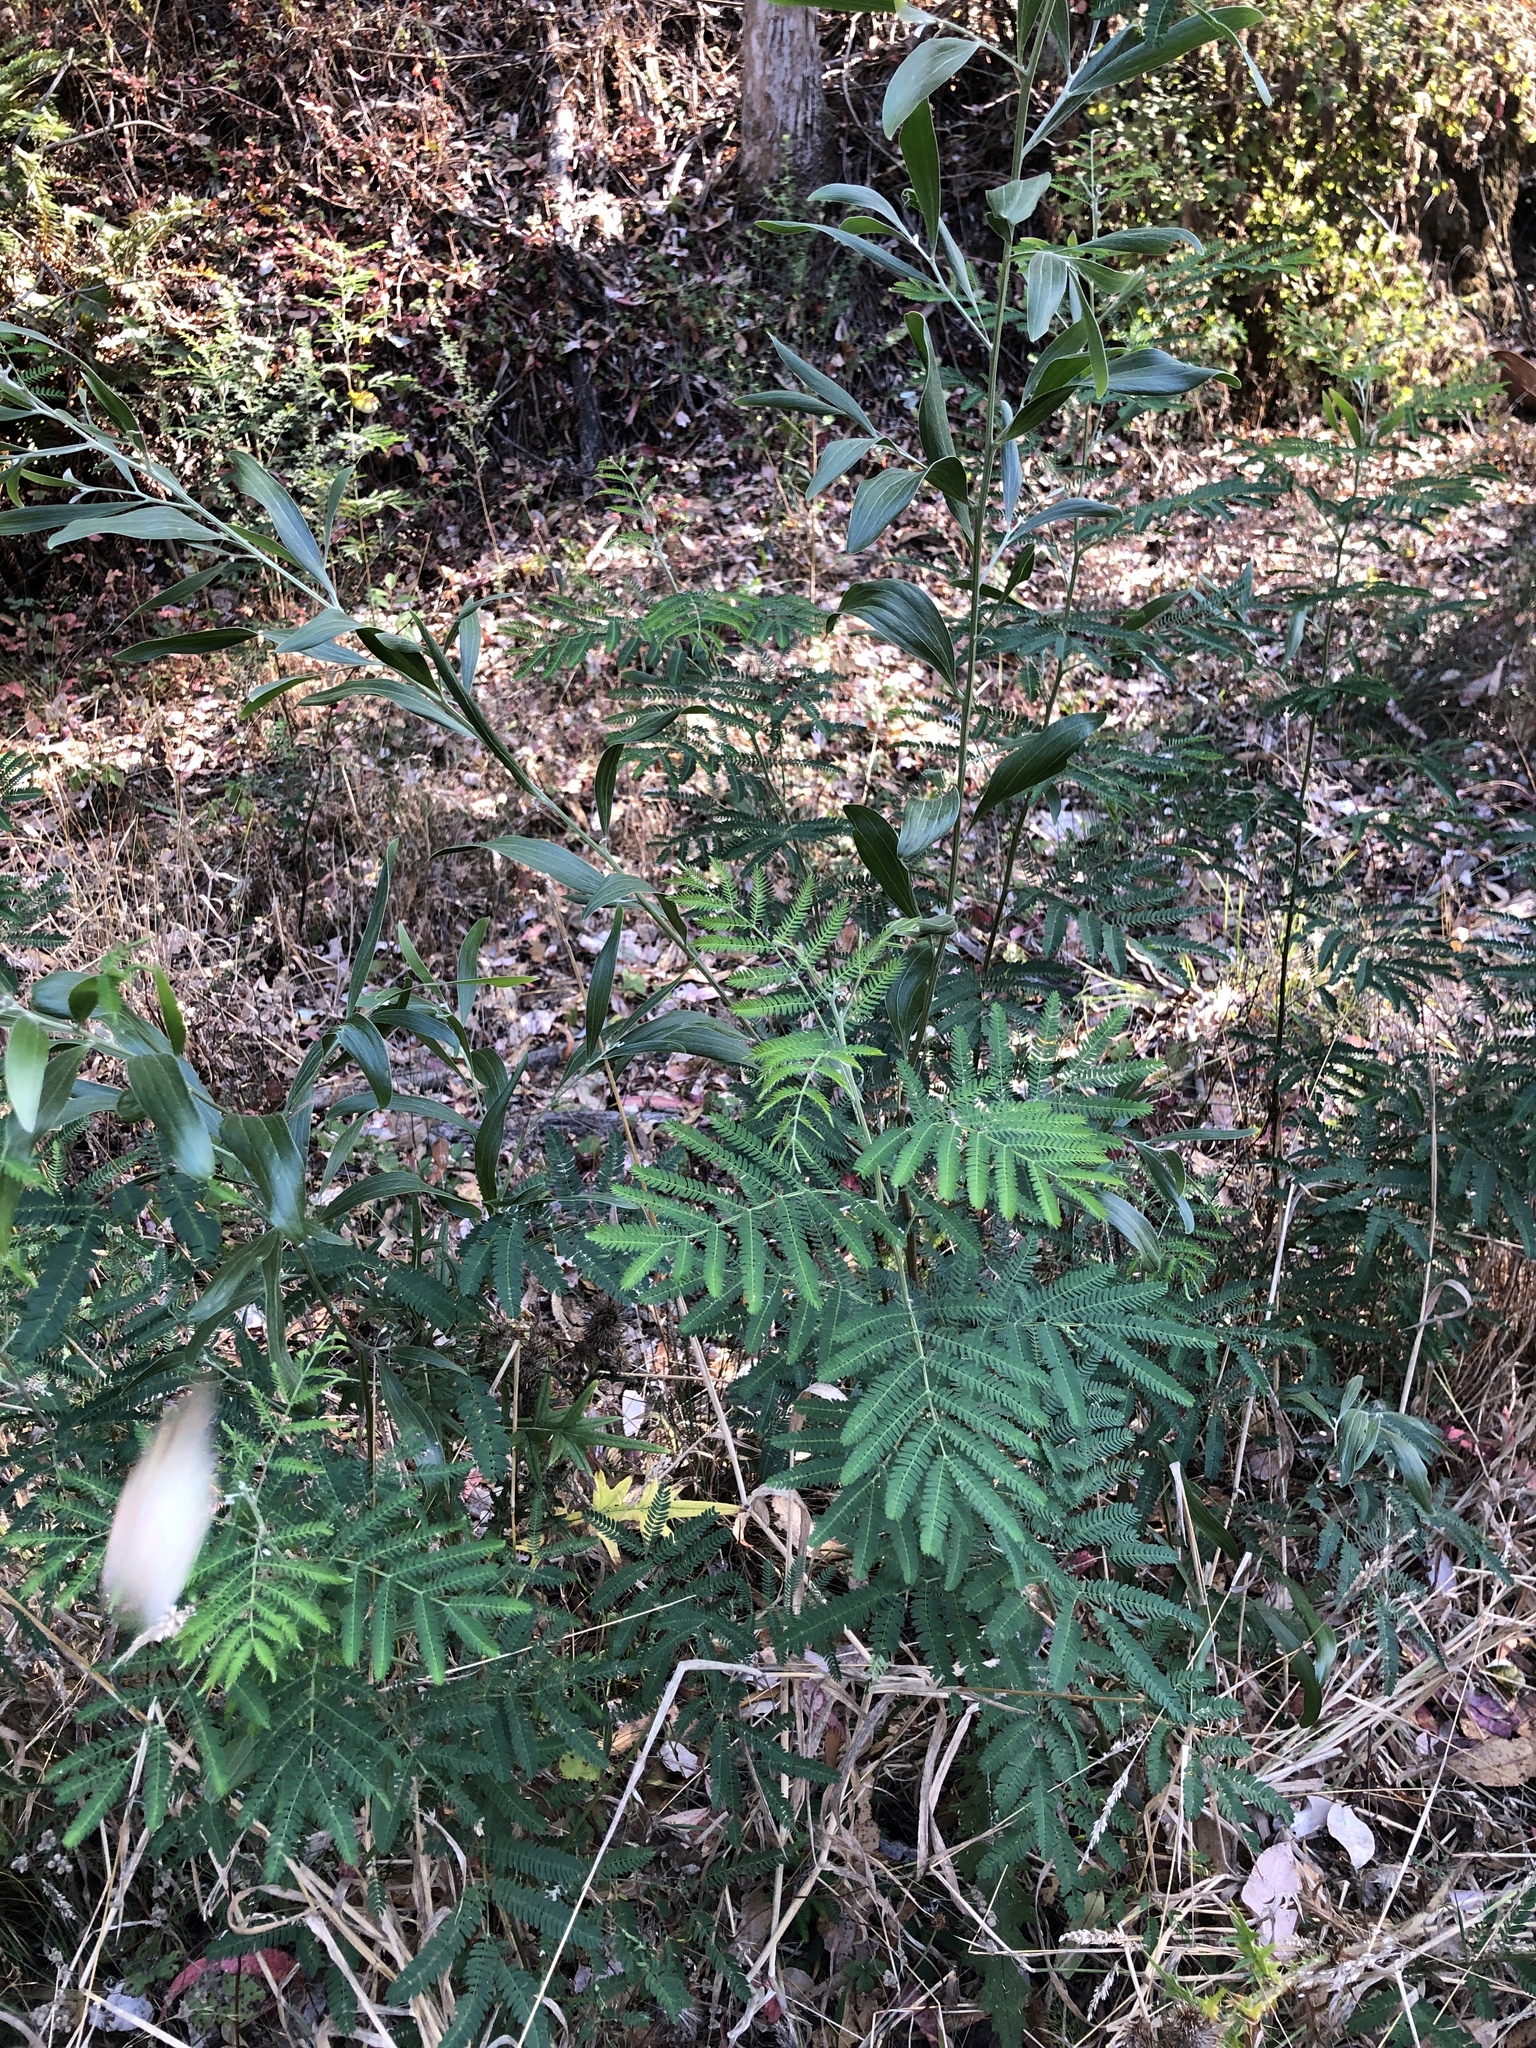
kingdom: Plantae
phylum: Tracheophyta
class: Magnoliopsida
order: Fabales
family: Fabaceae
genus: Acacia
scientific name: Acacia melanoxylon
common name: Blackwood
